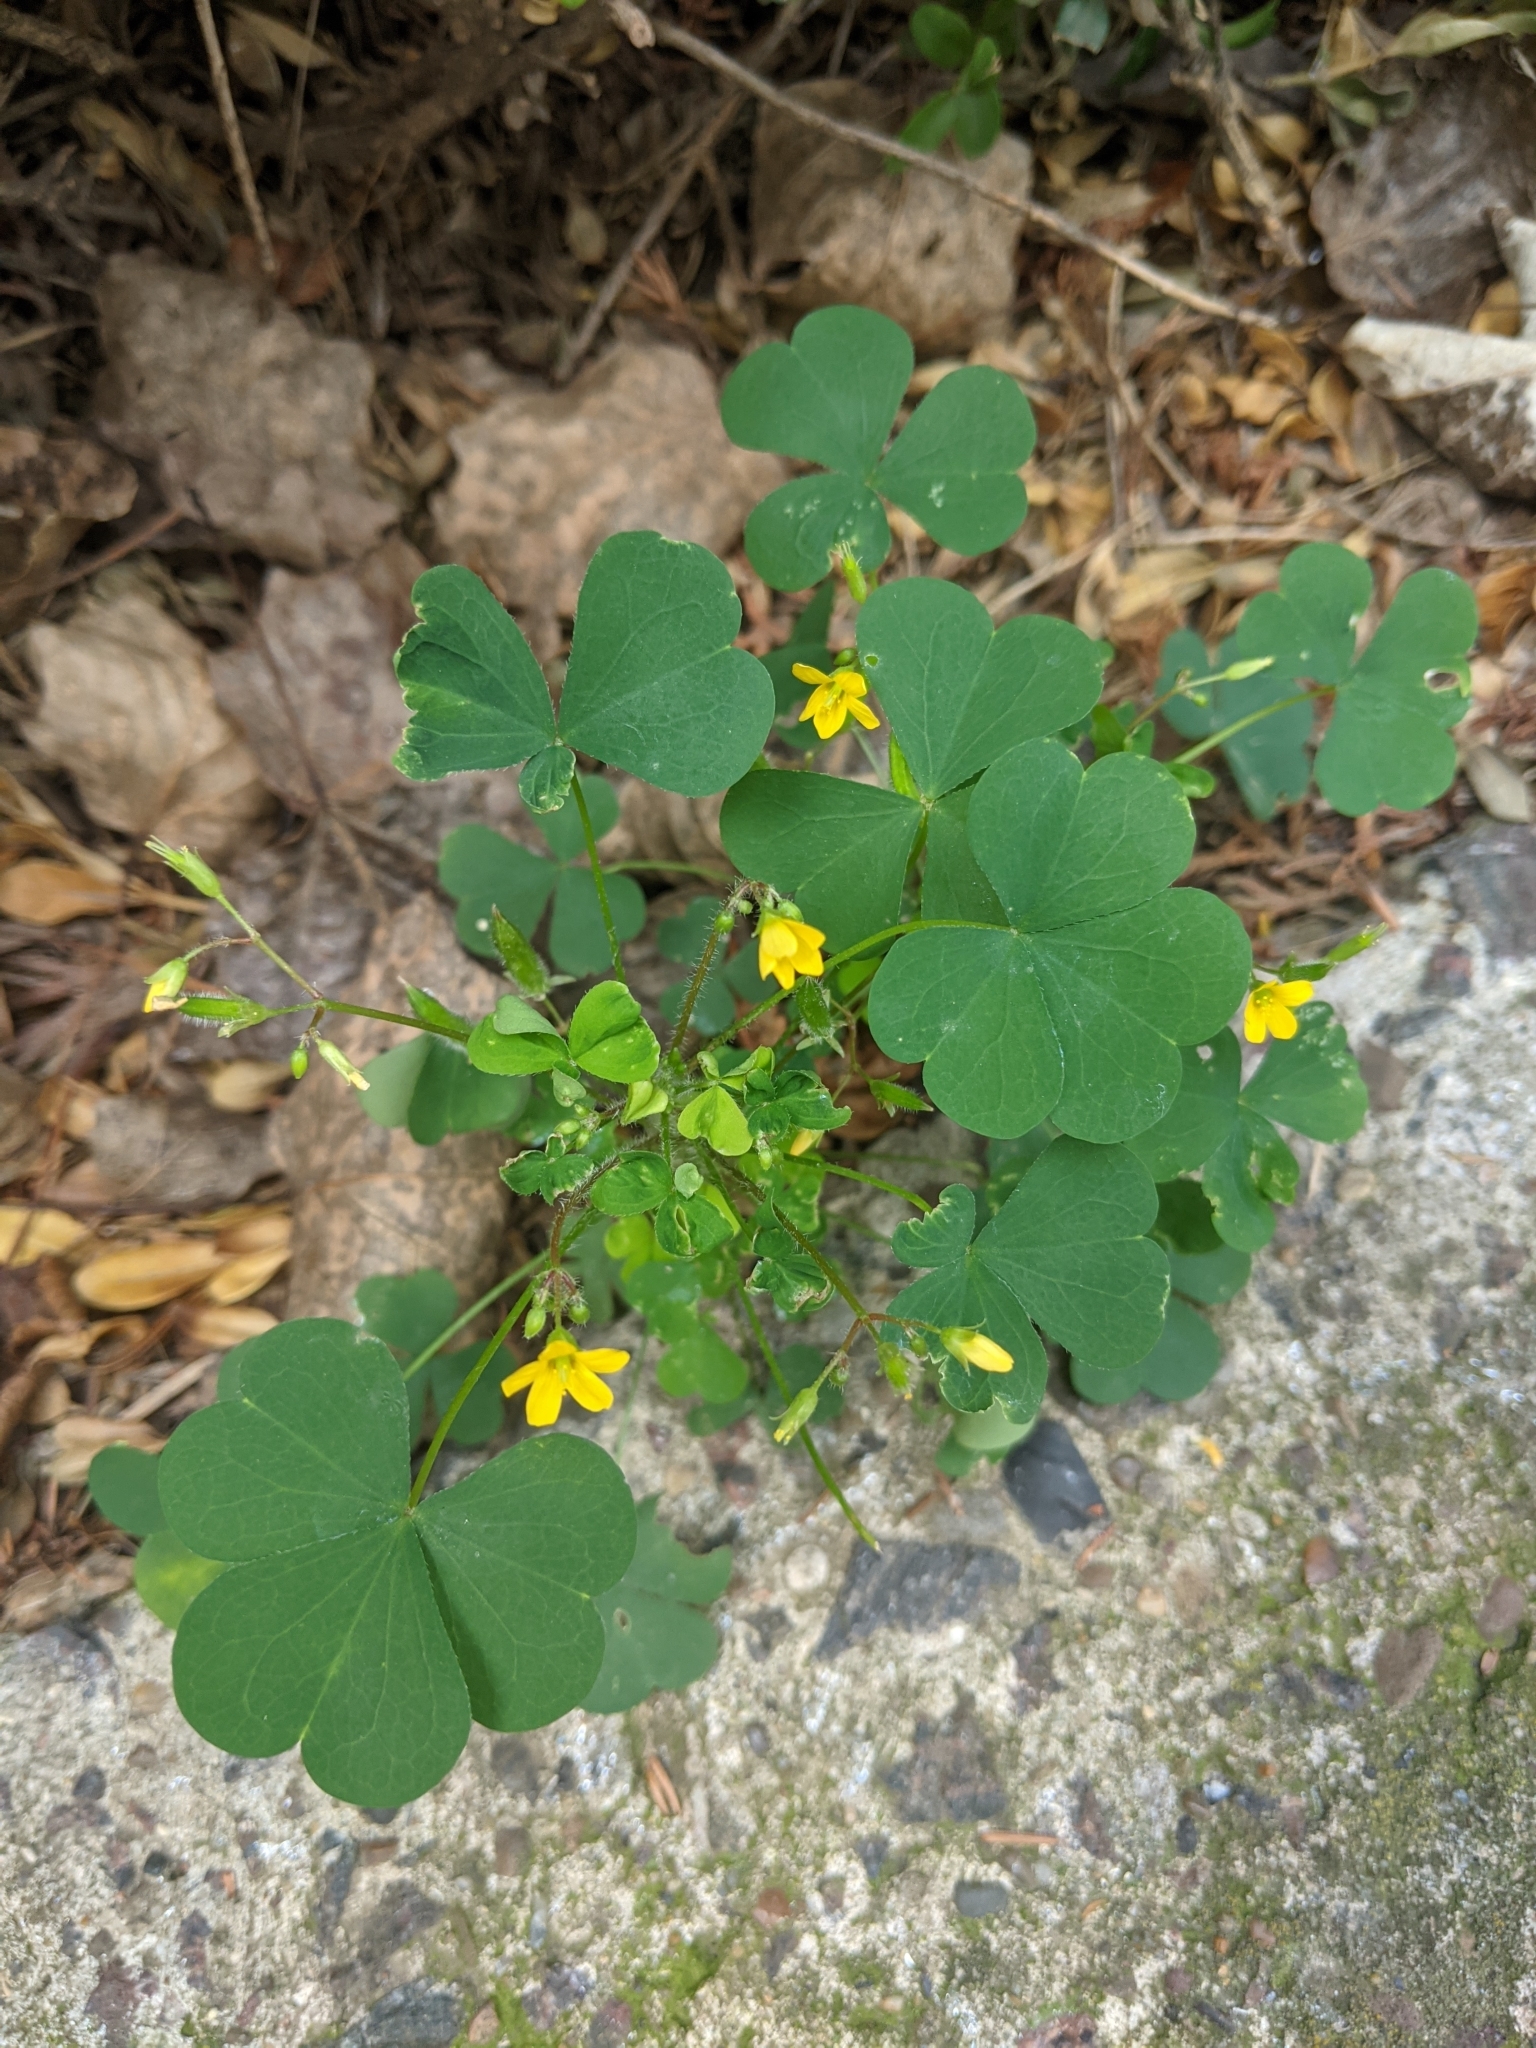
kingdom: Plantae
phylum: Tracheophyta
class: Magnoliopsida
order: Oxalidales
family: Oxalidaceae
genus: Oxalis
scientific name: Oxalis stricta
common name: Upright yellow-sorrel
